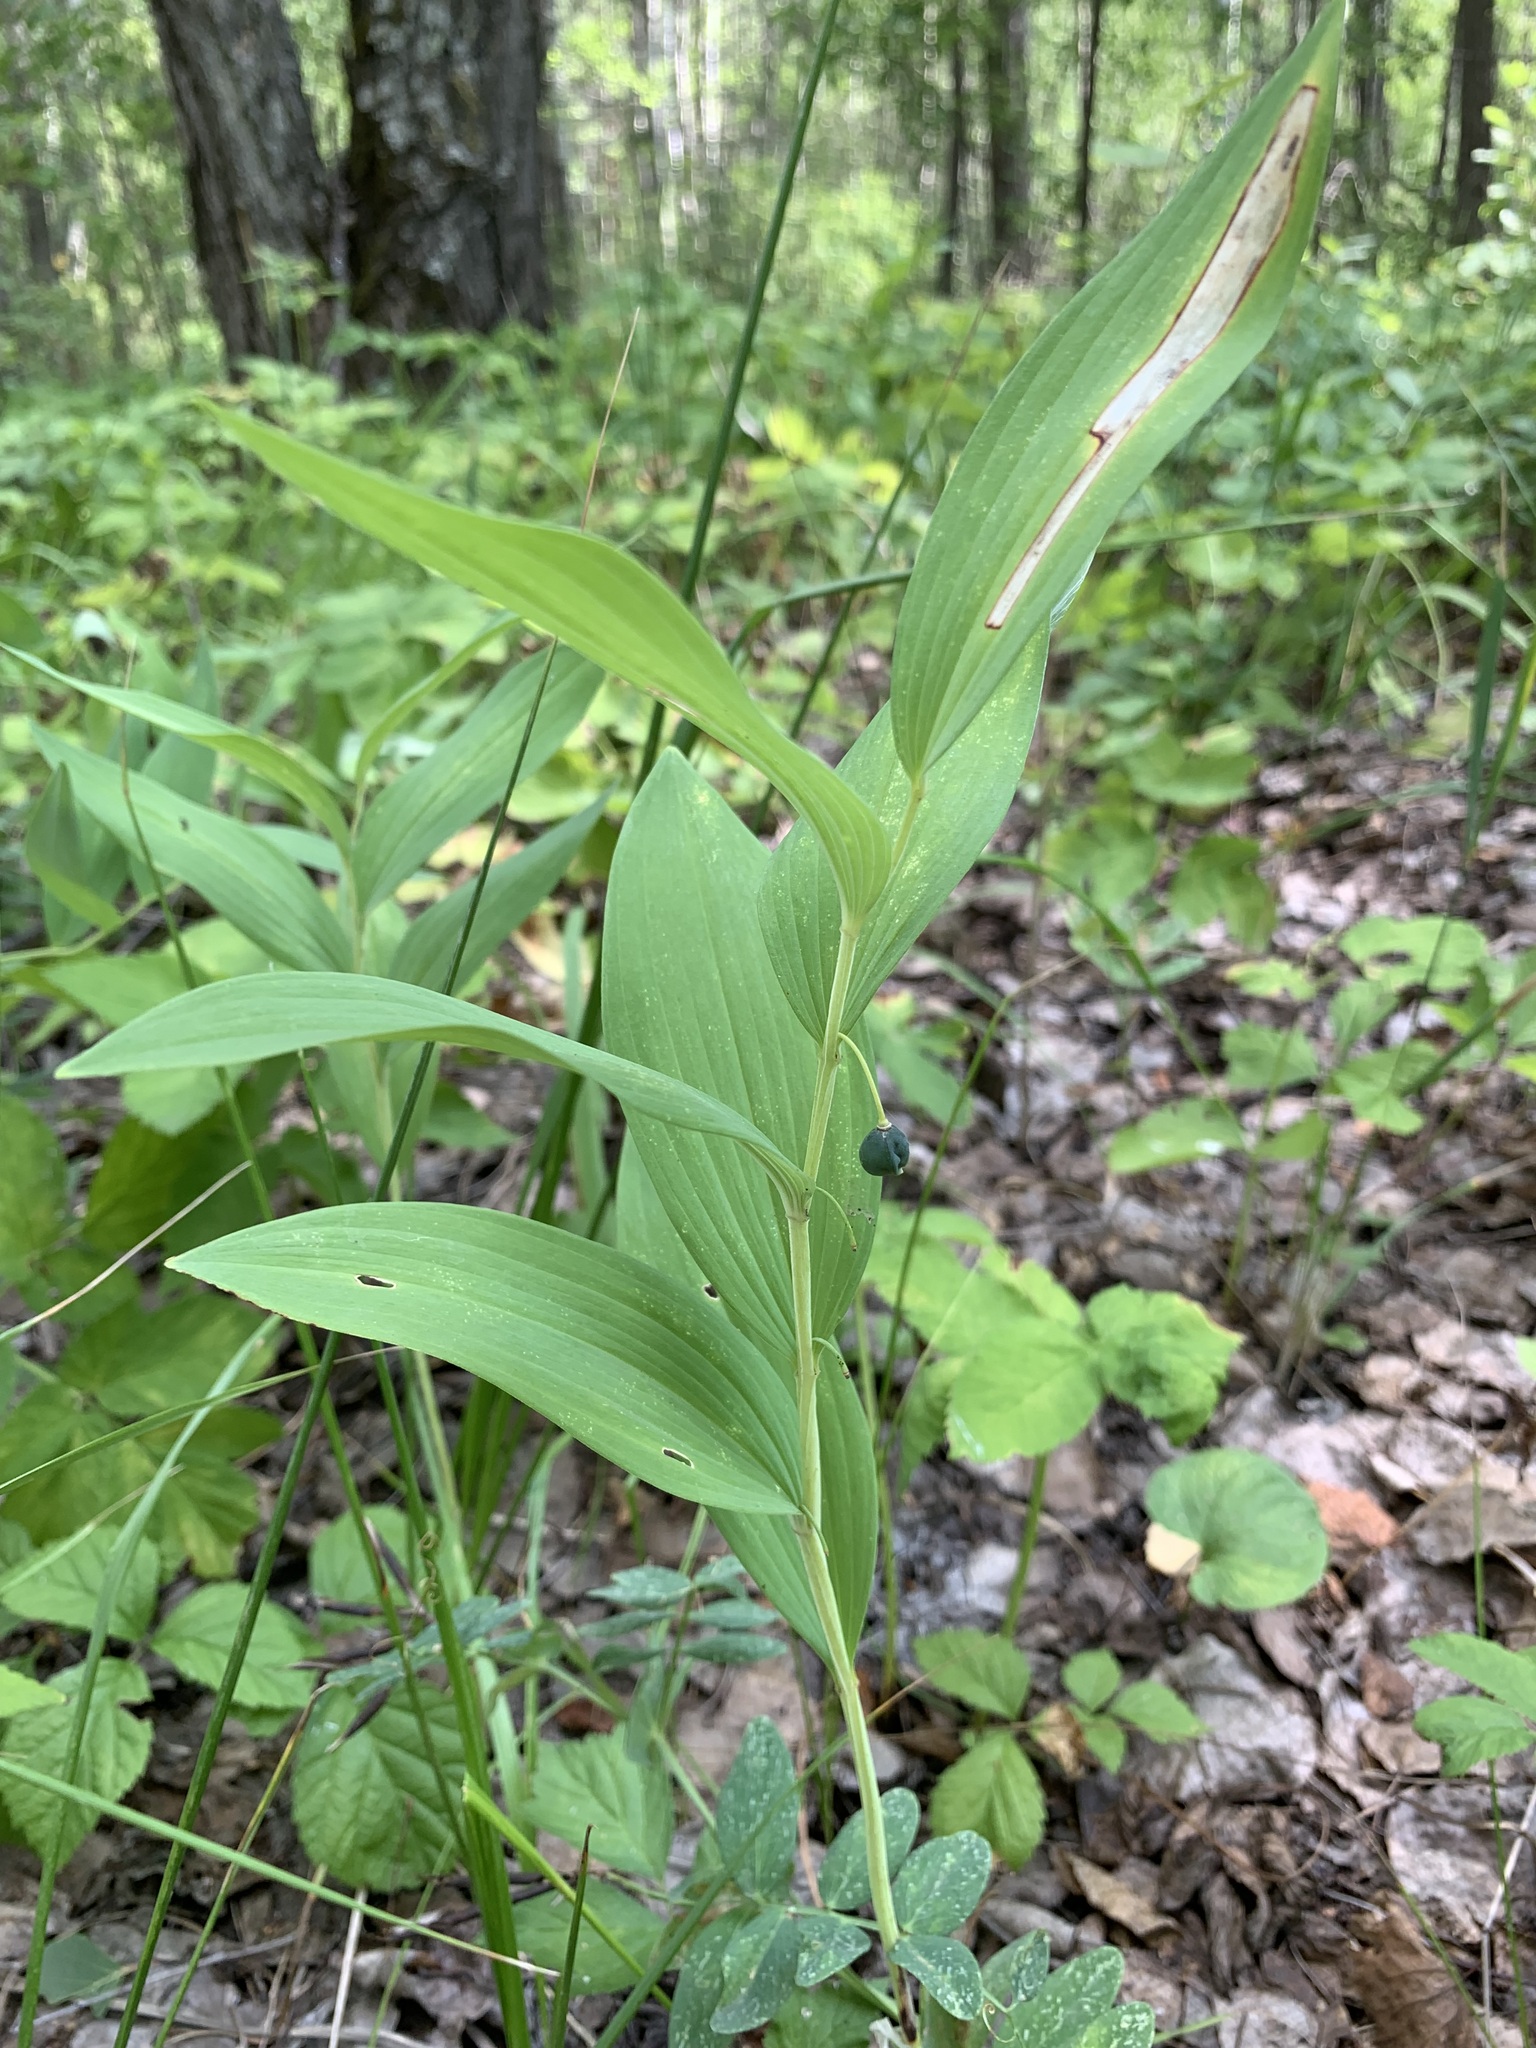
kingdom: Plantae
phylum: Tracheophyta
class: Liliopsida
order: Asparagales
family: Asparagaceae
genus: Polygonatum
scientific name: Polygonatum odoratum
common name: Angular solomon's-seal
